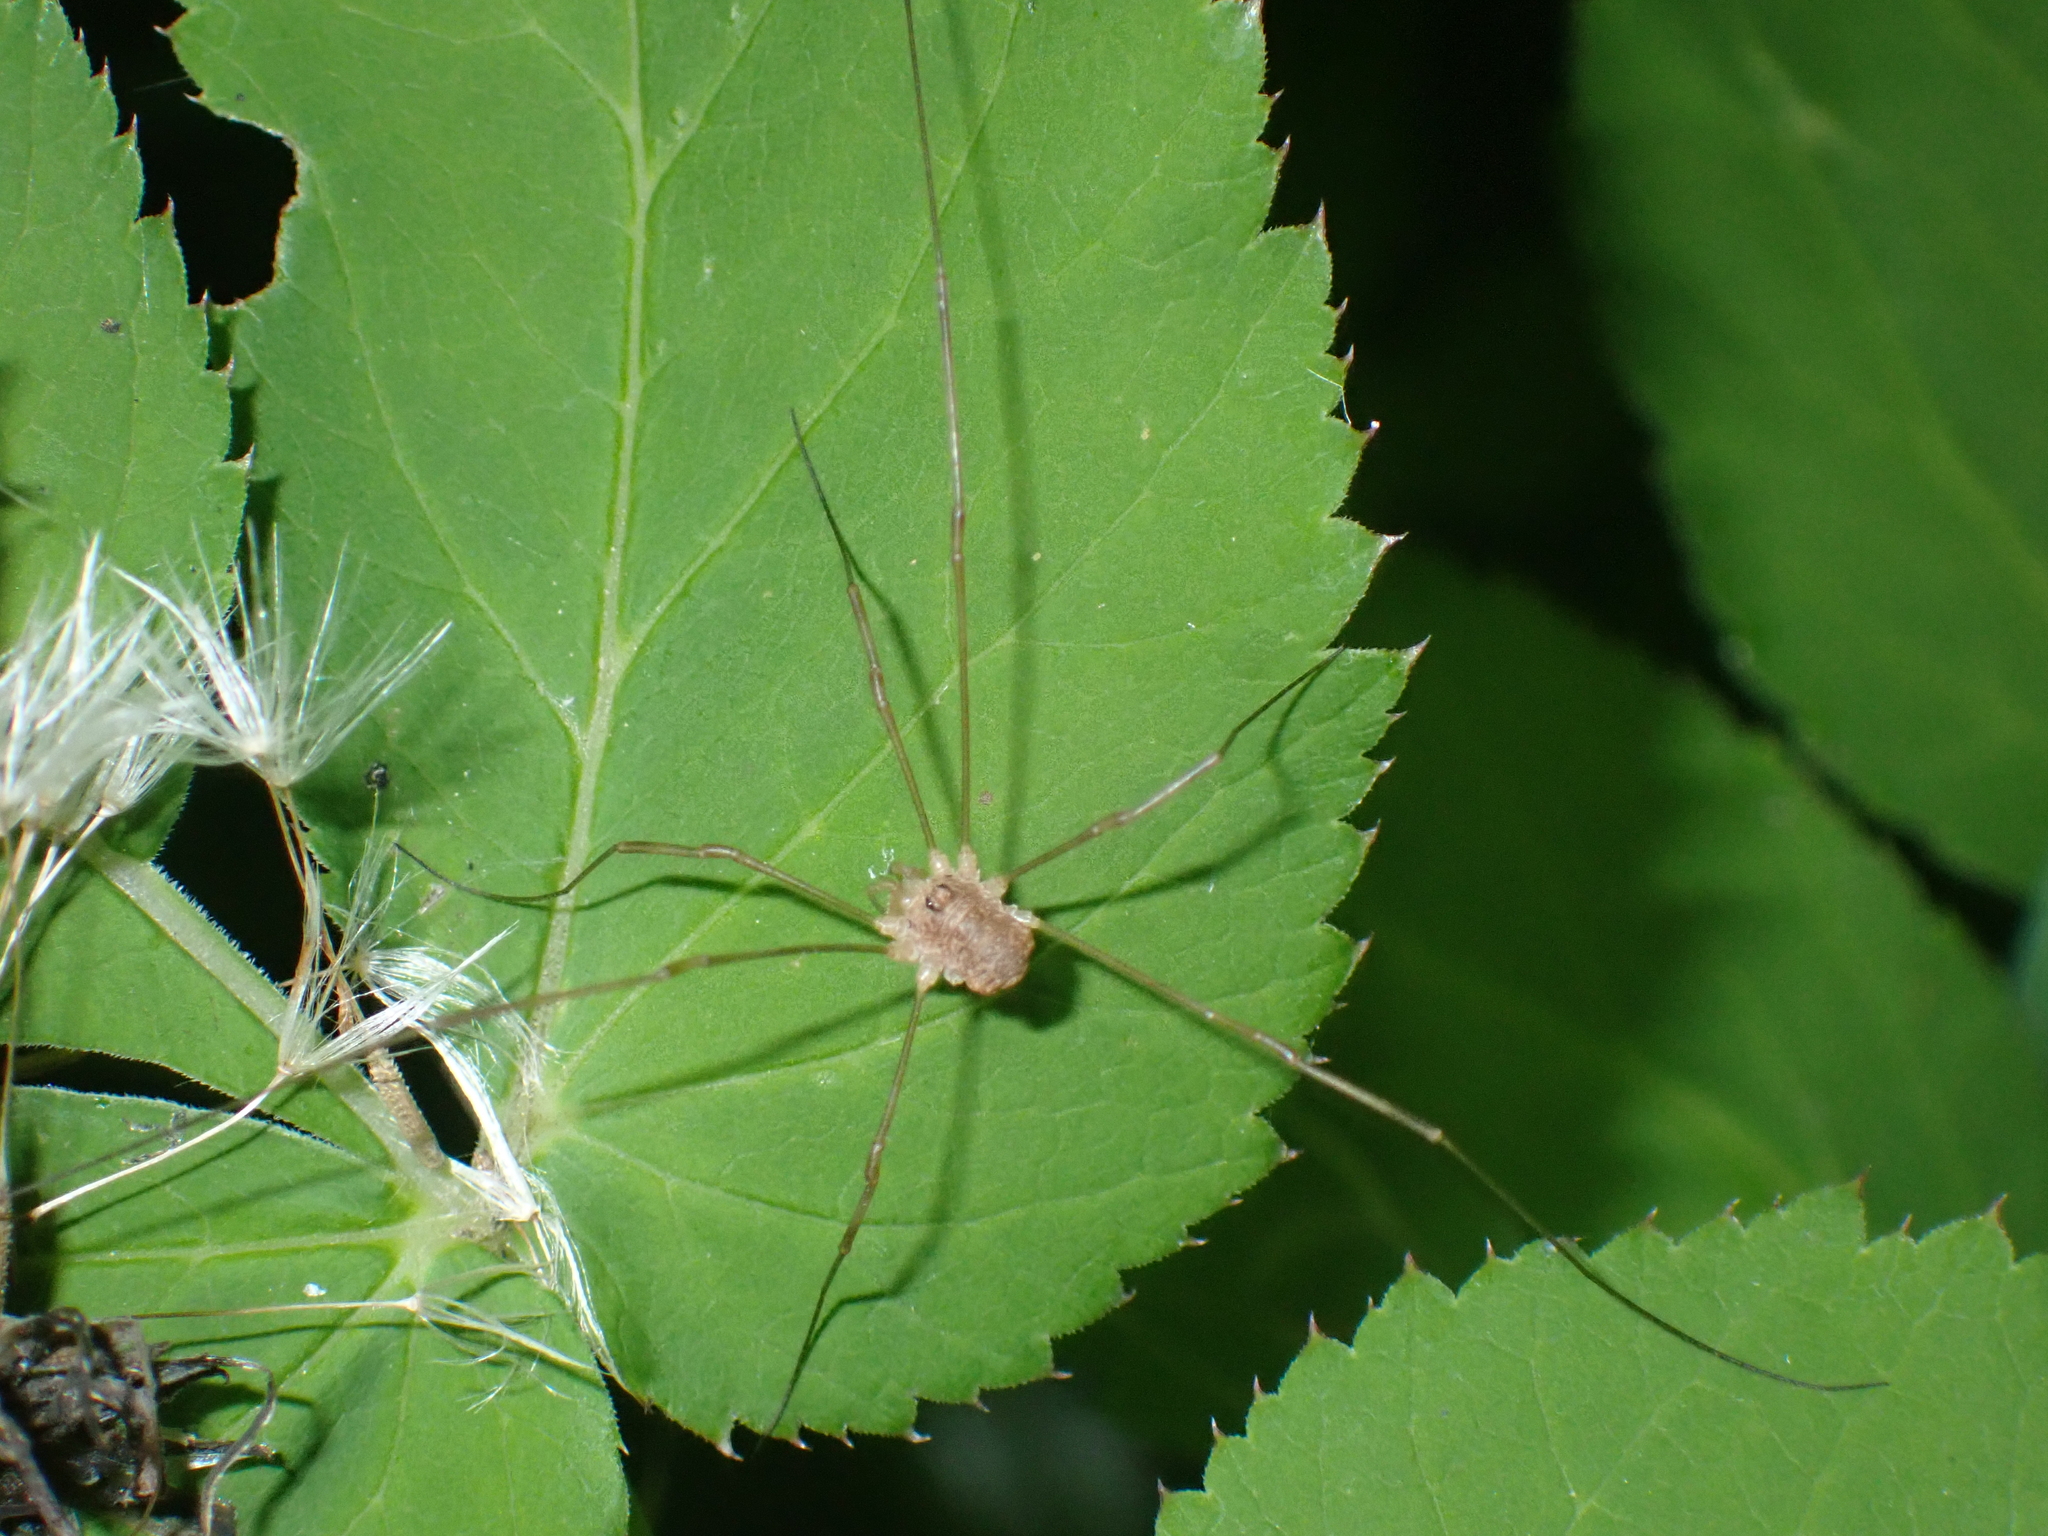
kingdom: Animalia
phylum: Arthropoda
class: Arachnida
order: Opiliones
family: Phalangiidae
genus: Rilaena
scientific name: Rilaena triangularis
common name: Spring harvestman
